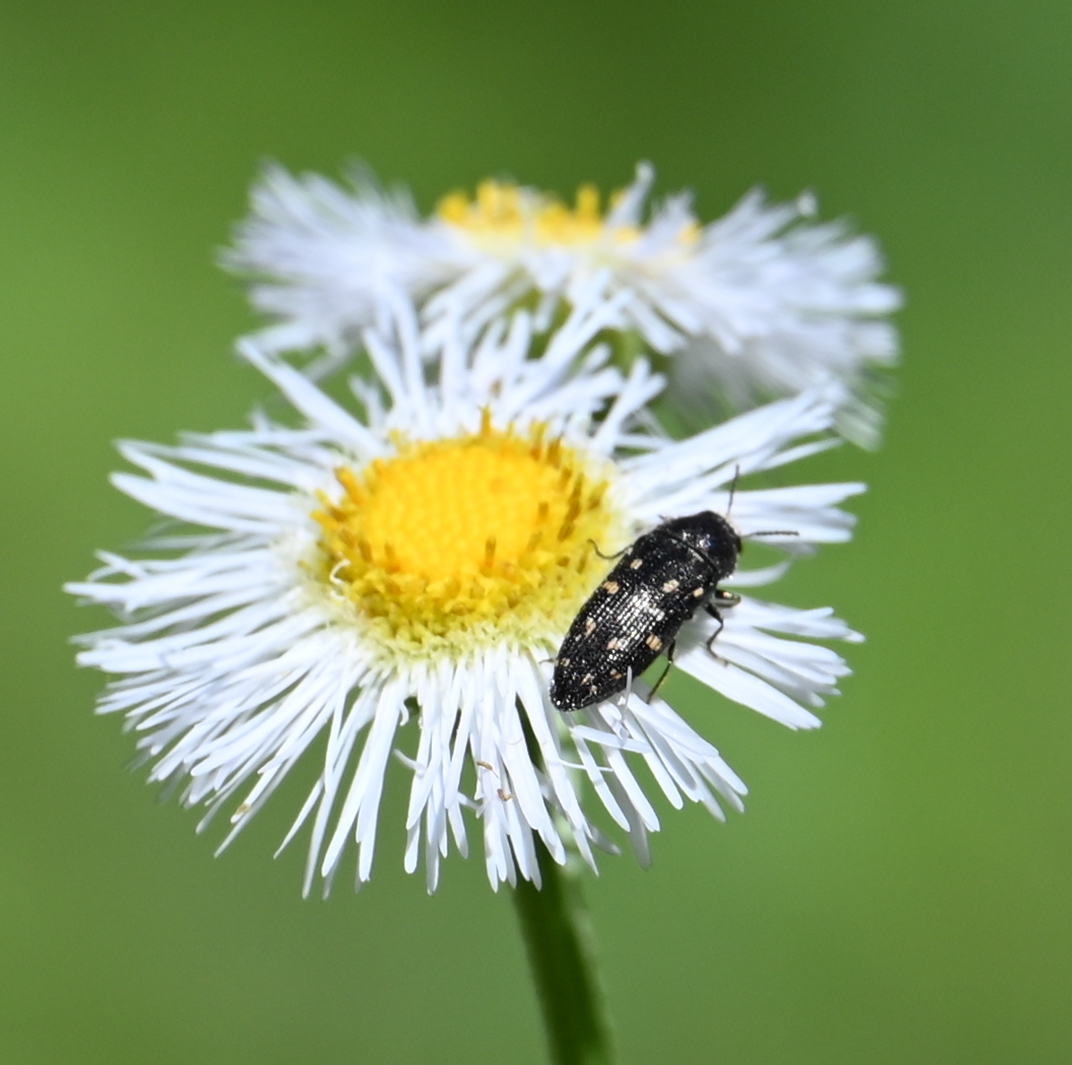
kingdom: Animalia
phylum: Arthropoda
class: Insecta
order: Coleoptera
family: Buprestidae
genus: Acmaeodera
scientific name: Acmaeodera tubulus
